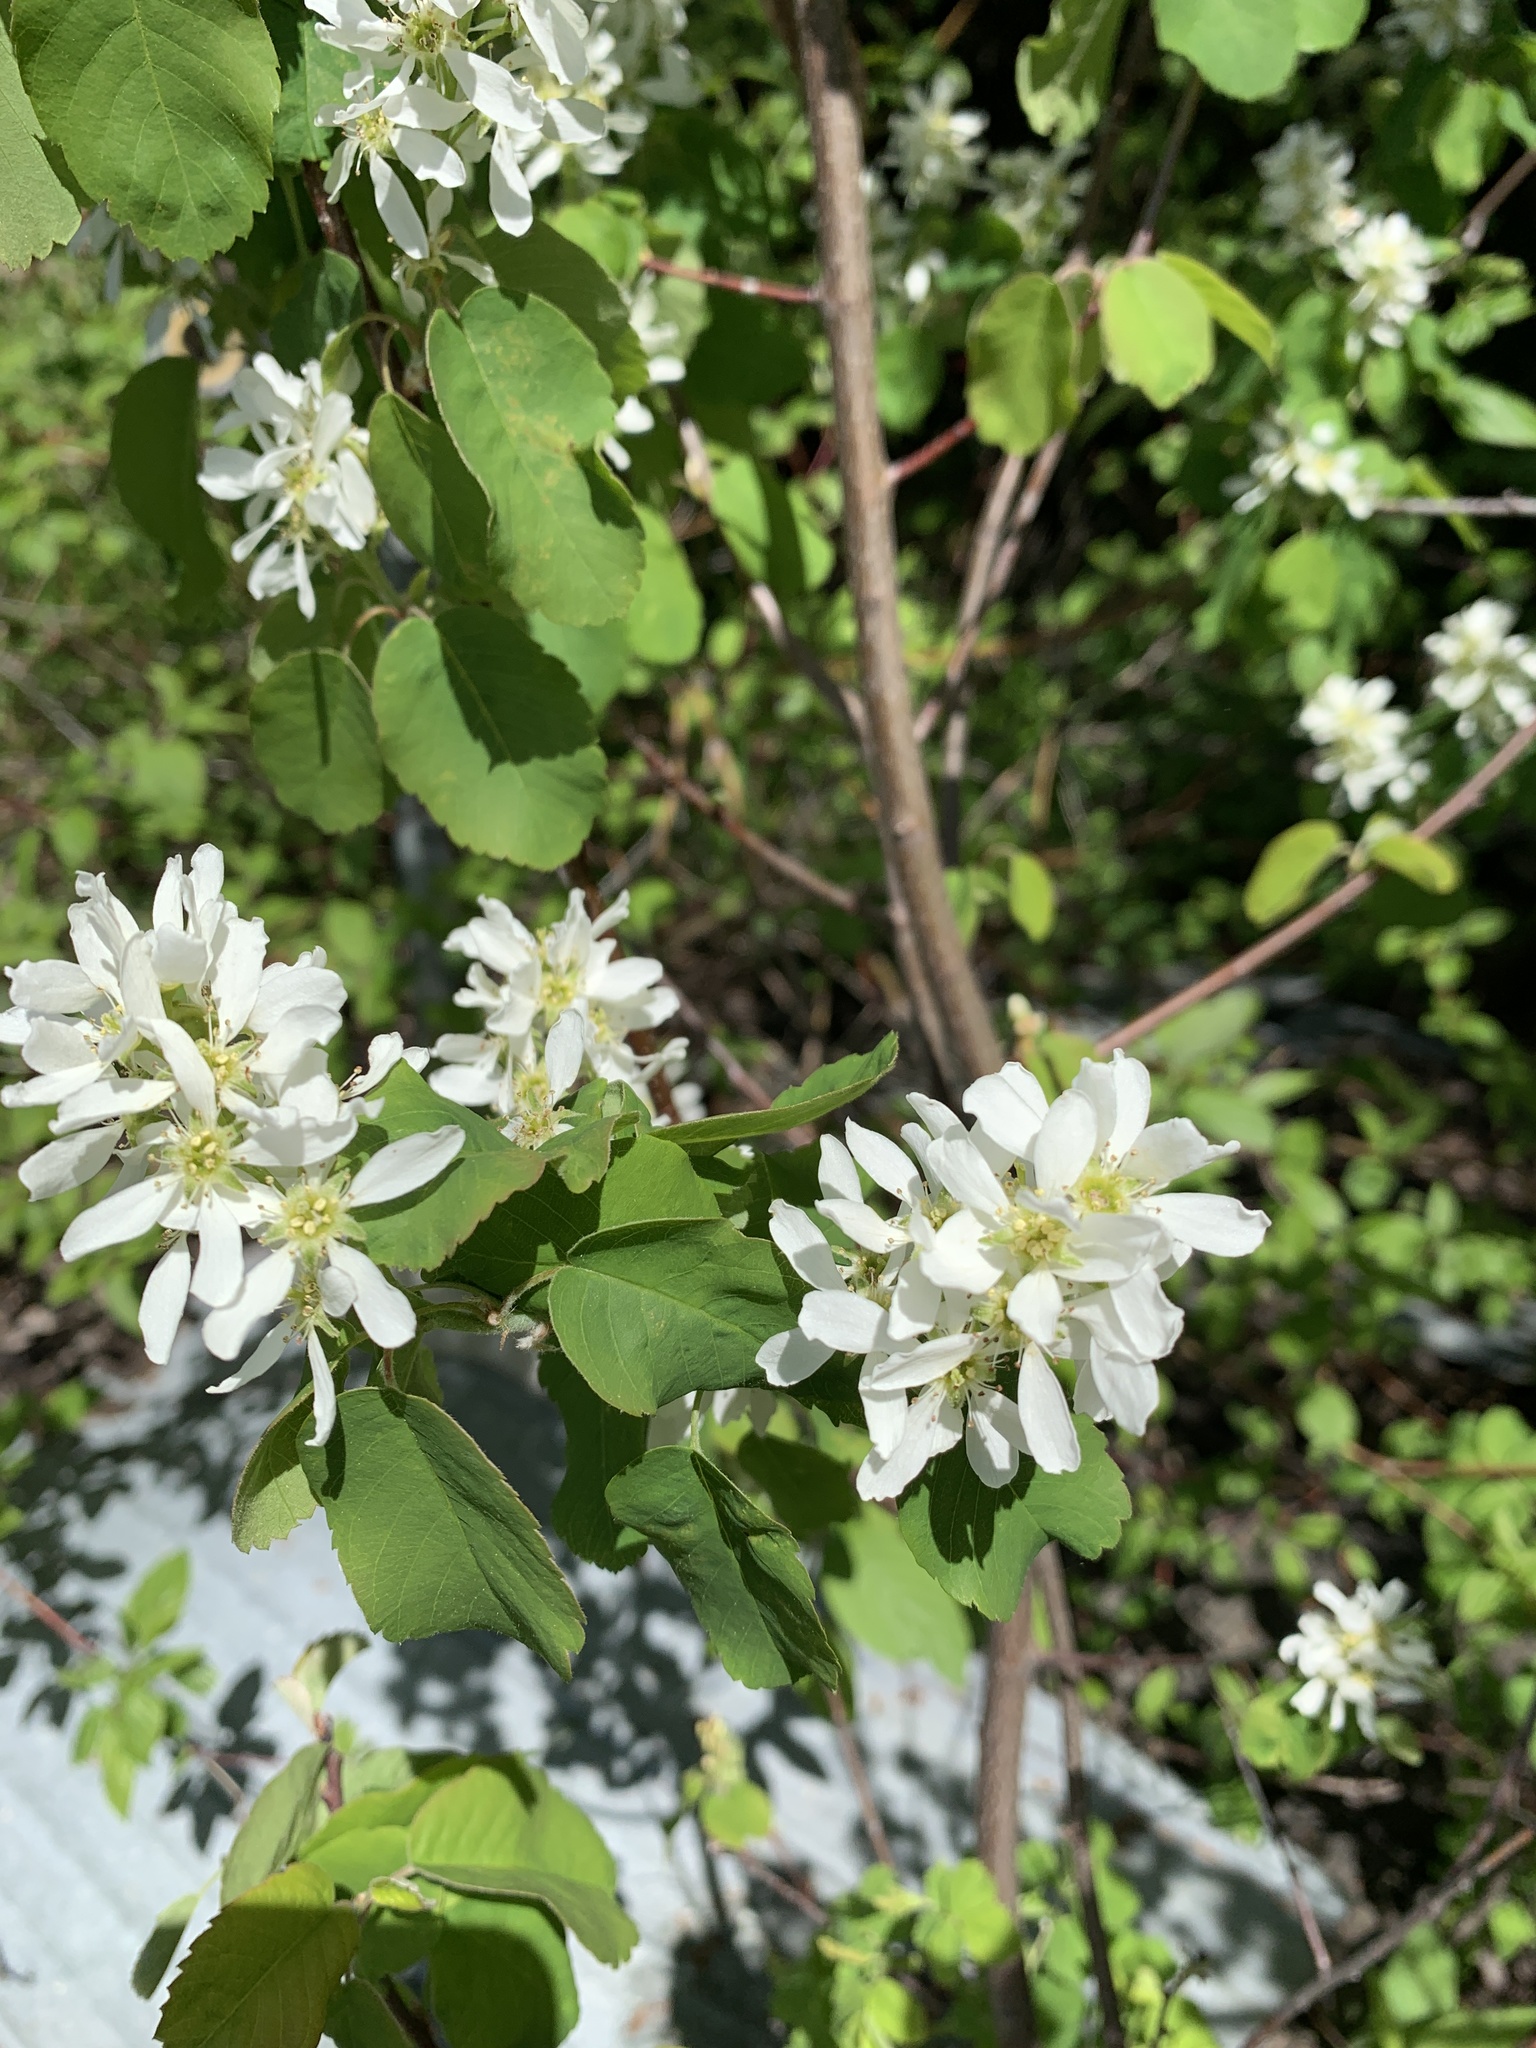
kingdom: Plantae
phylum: Tracheophyta
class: Magnoliopsida
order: Rosales
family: Rosaceae
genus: Amelanchier
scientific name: Amelanchier alnifolia
